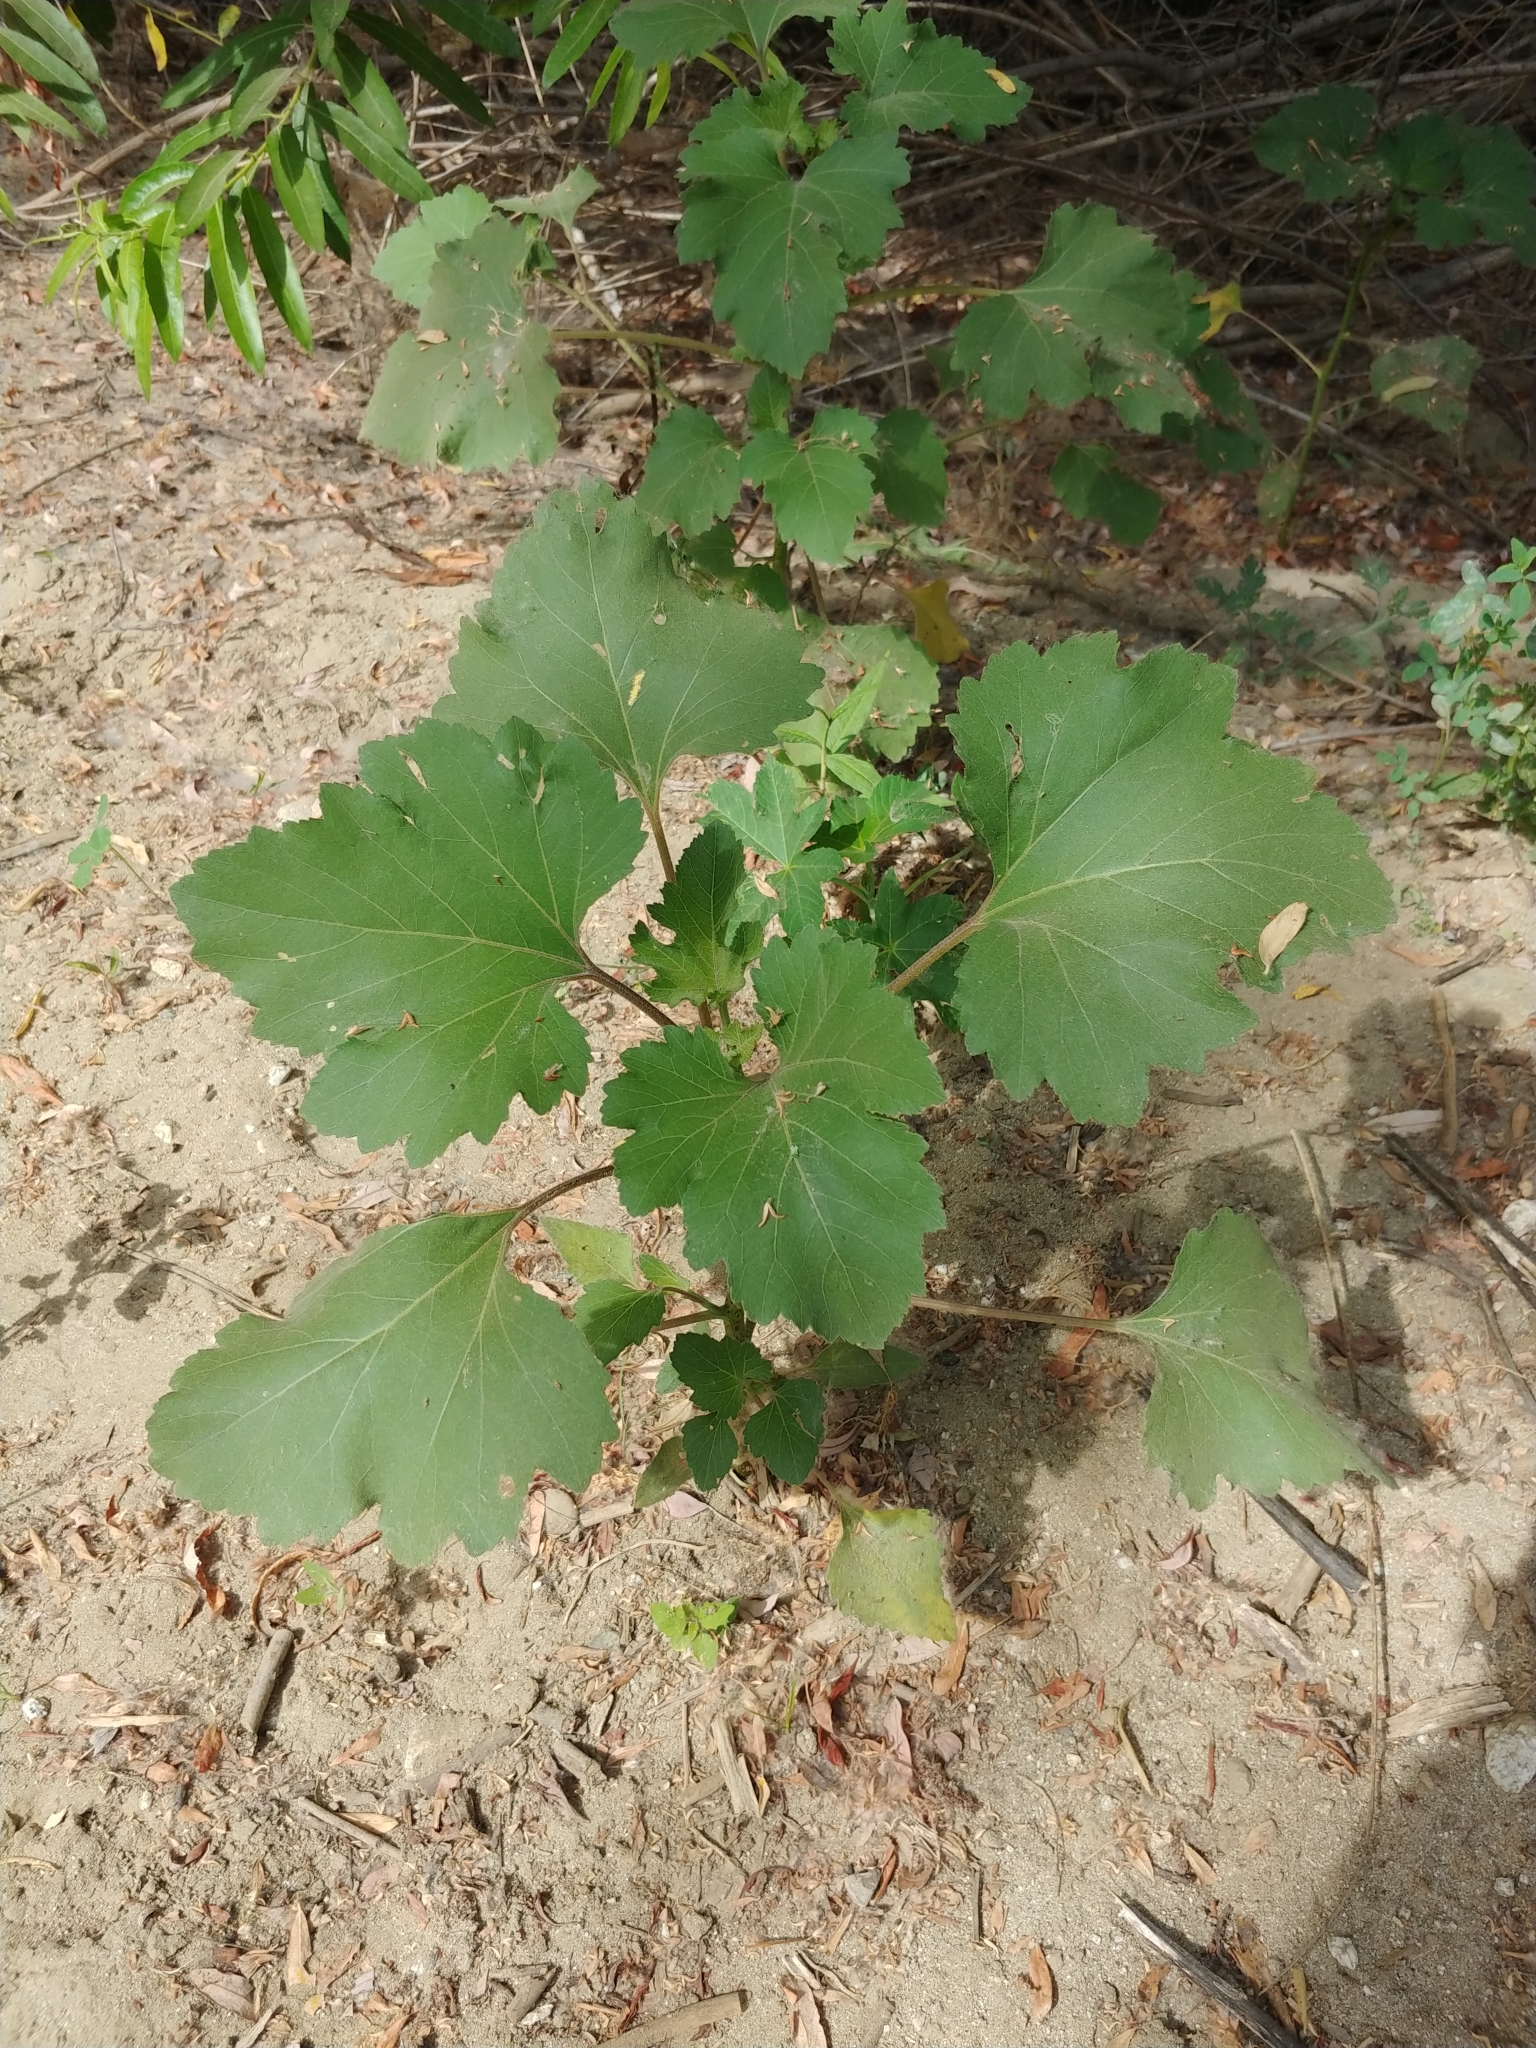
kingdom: Plantae
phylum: Tracheophyta
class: Magnoliopsida
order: Asterales
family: Asteraceae
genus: Xanthium
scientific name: Xanthium strumarium
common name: Rough cocklebur
